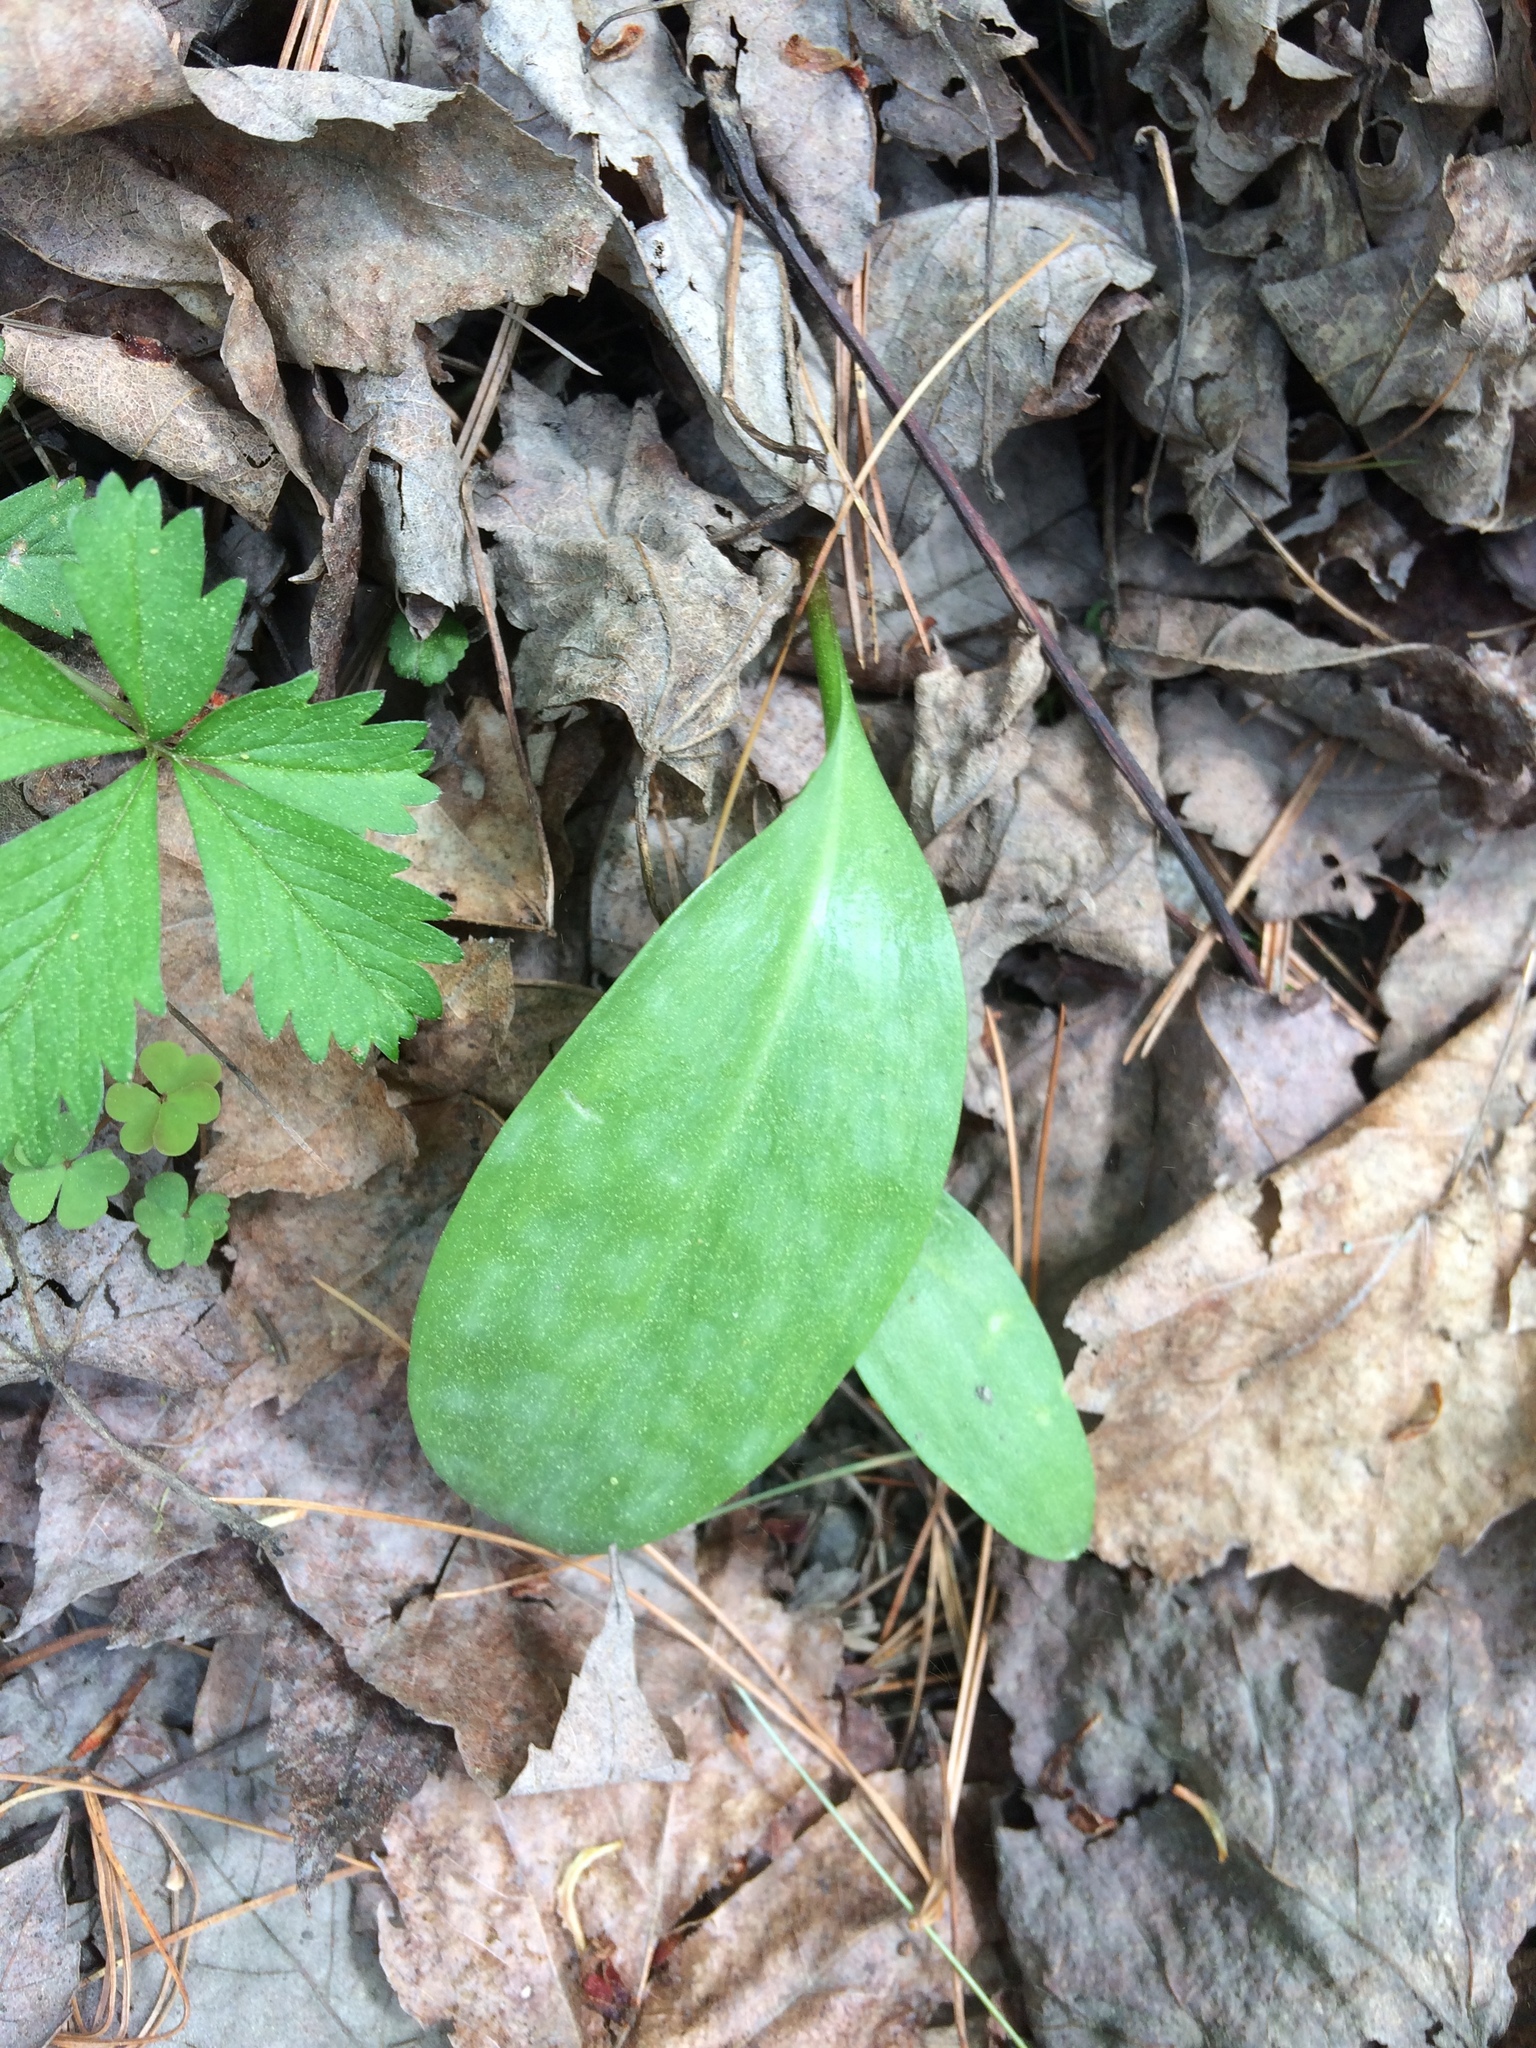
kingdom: Plantae
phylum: Tracheophyta
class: Liliopsida
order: Liliales
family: Liliaceae
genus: Erythronium
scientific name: Erythronium americanum
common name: Yellow adder's-tongue
